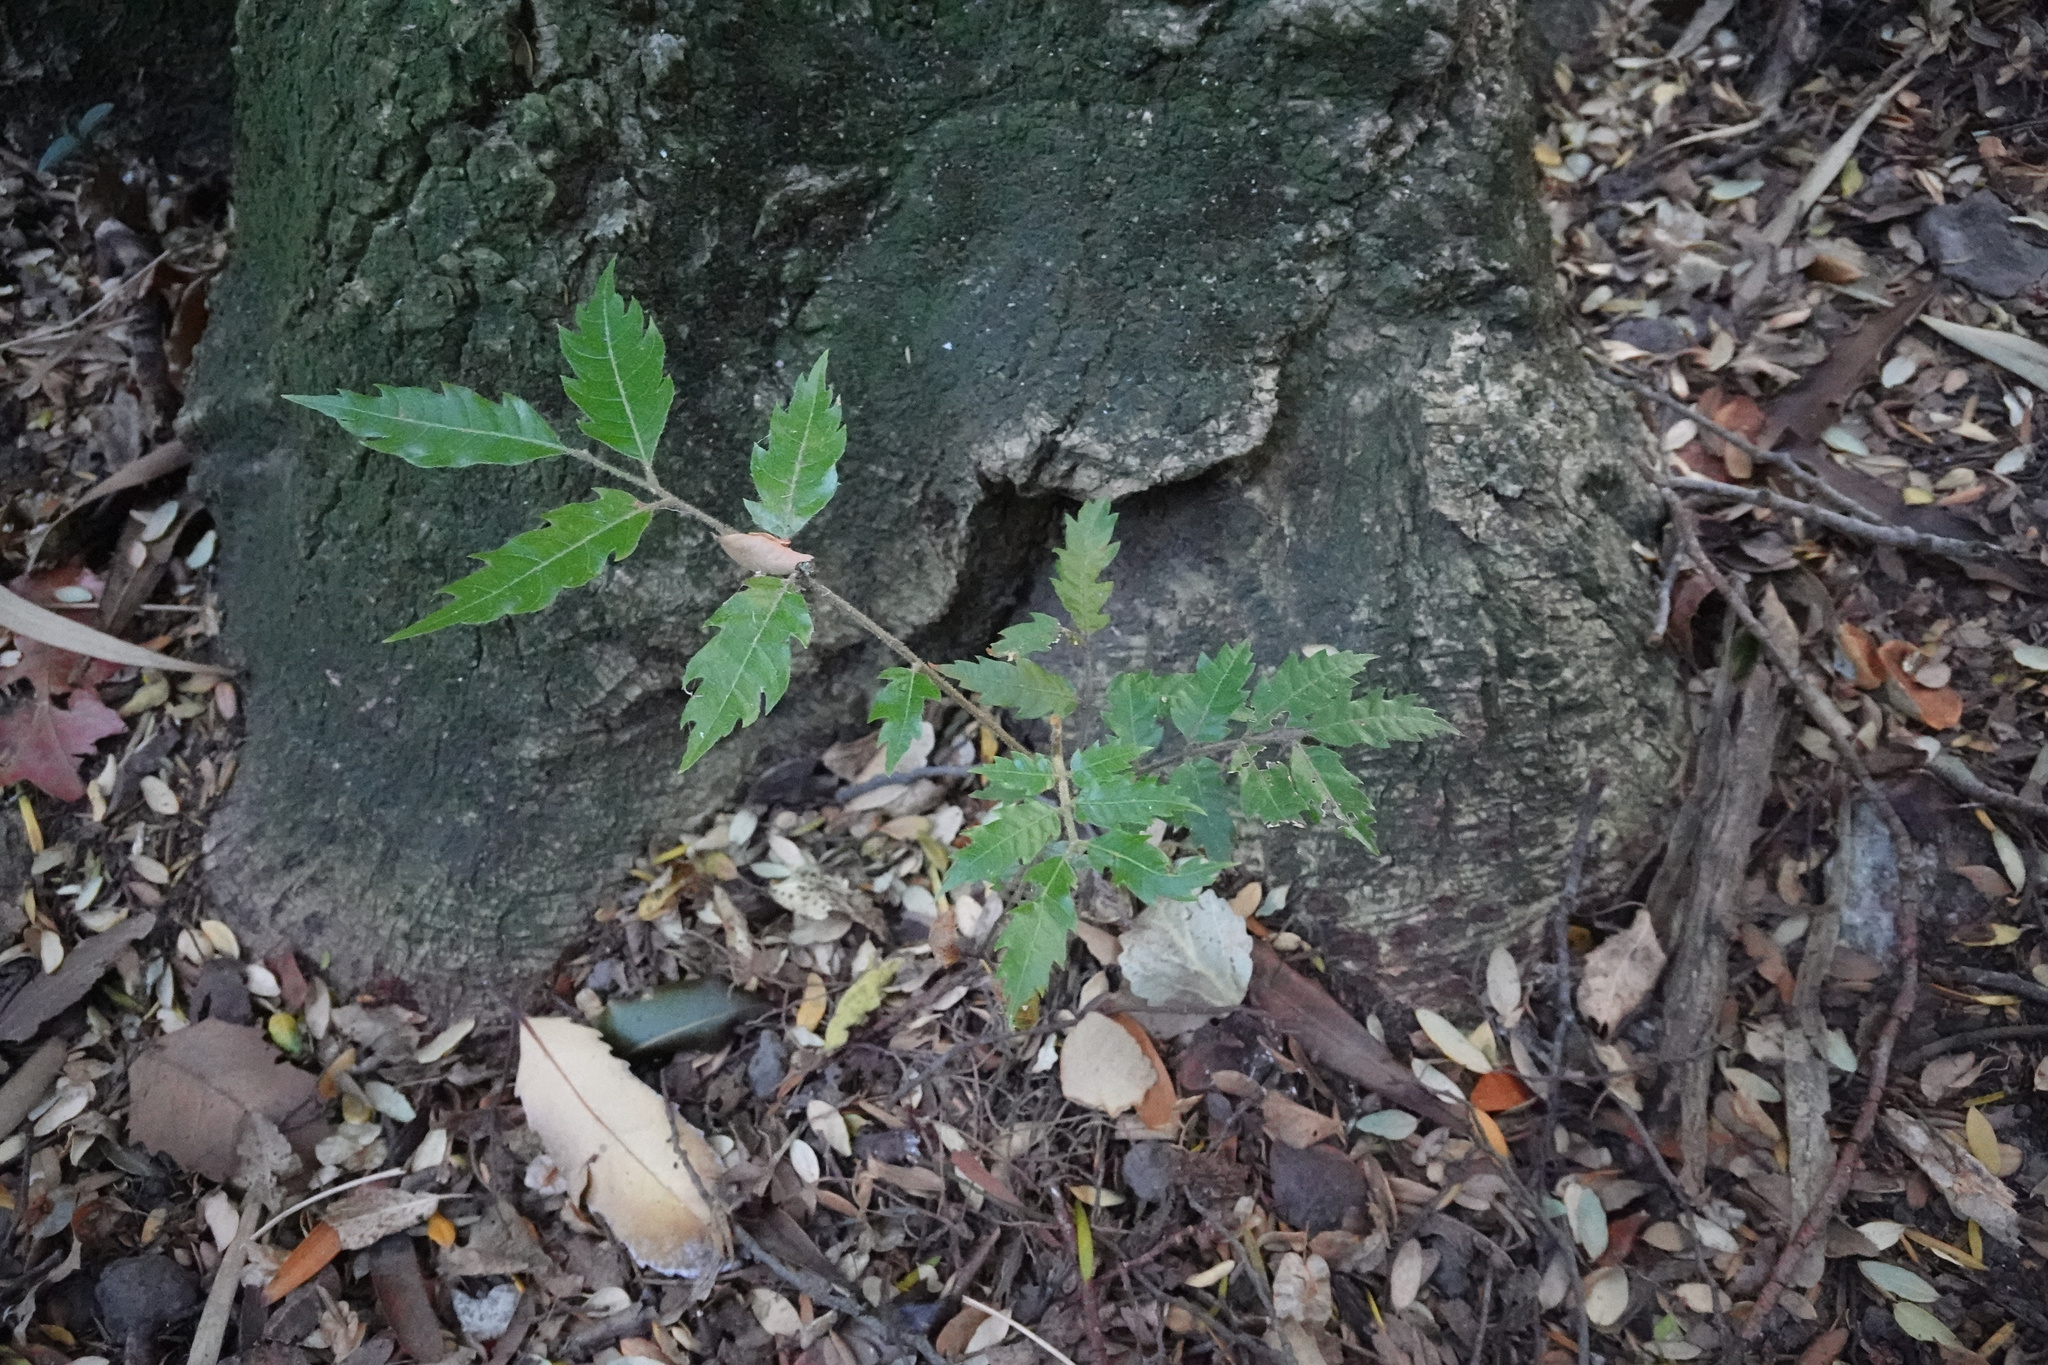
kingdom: Plantae
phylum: Tracheophyta
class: Magnoliopsida
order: Sapindales
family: Sapindaceae
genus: Alectryon
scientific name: Alectryon excelsus
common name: Three kings titoki
